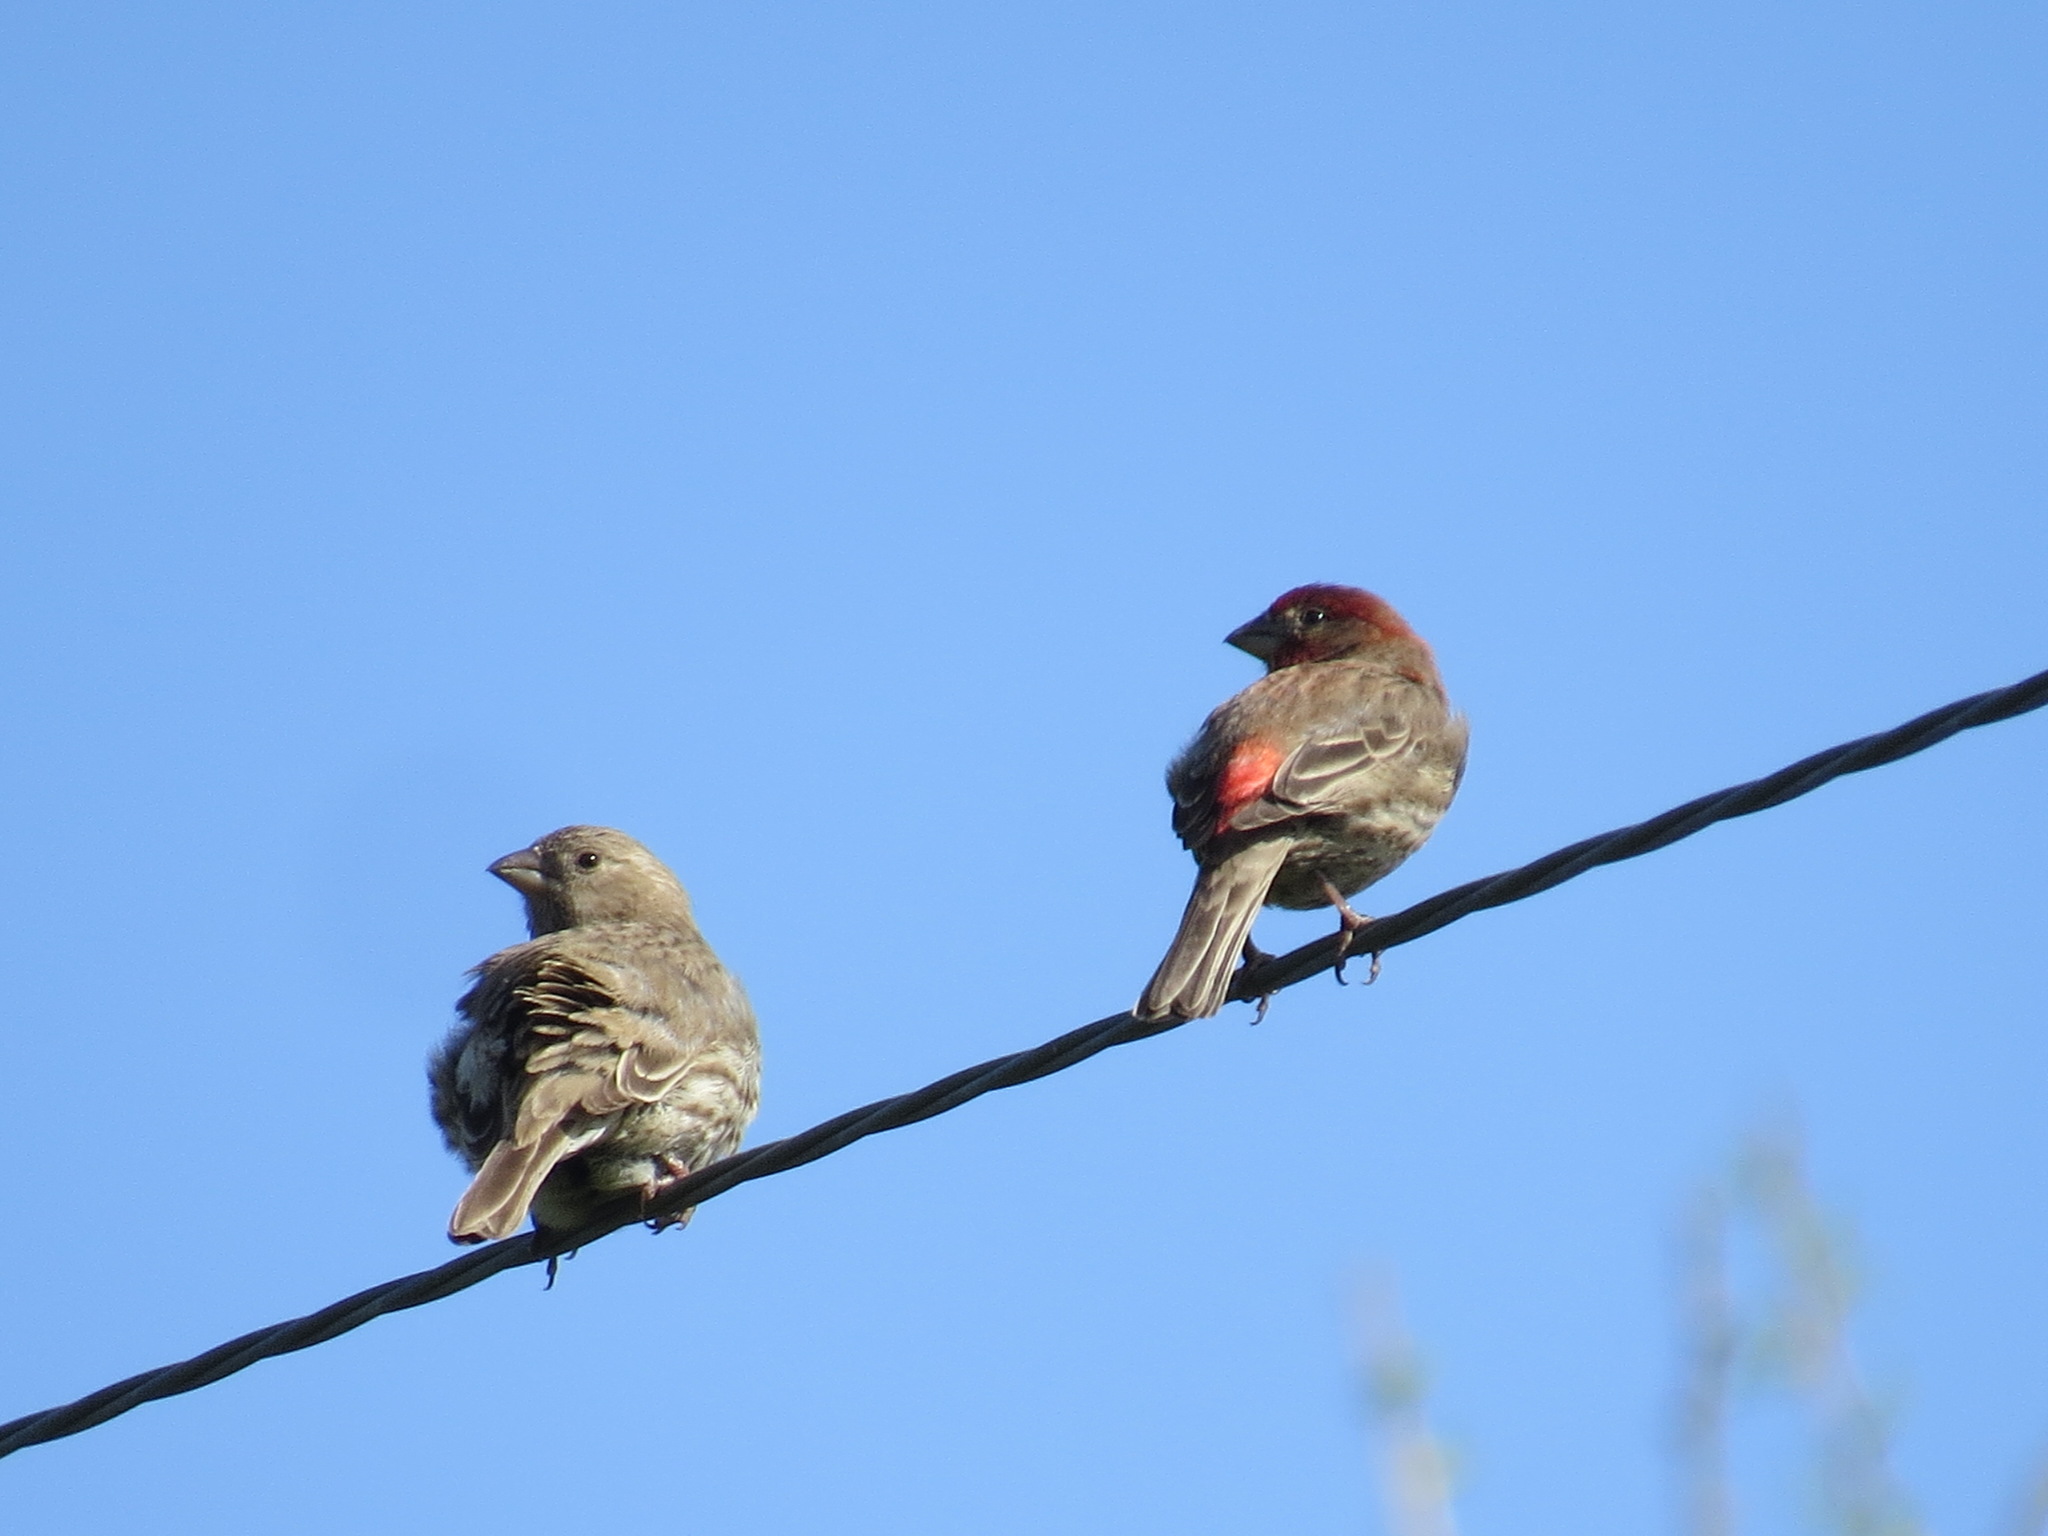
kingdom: Animalia
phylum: Chordata
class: Aves
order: Passeriformes
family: Fringillidae
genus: Haemorhous
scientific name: Haemorhous mexicanus
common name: House finch
